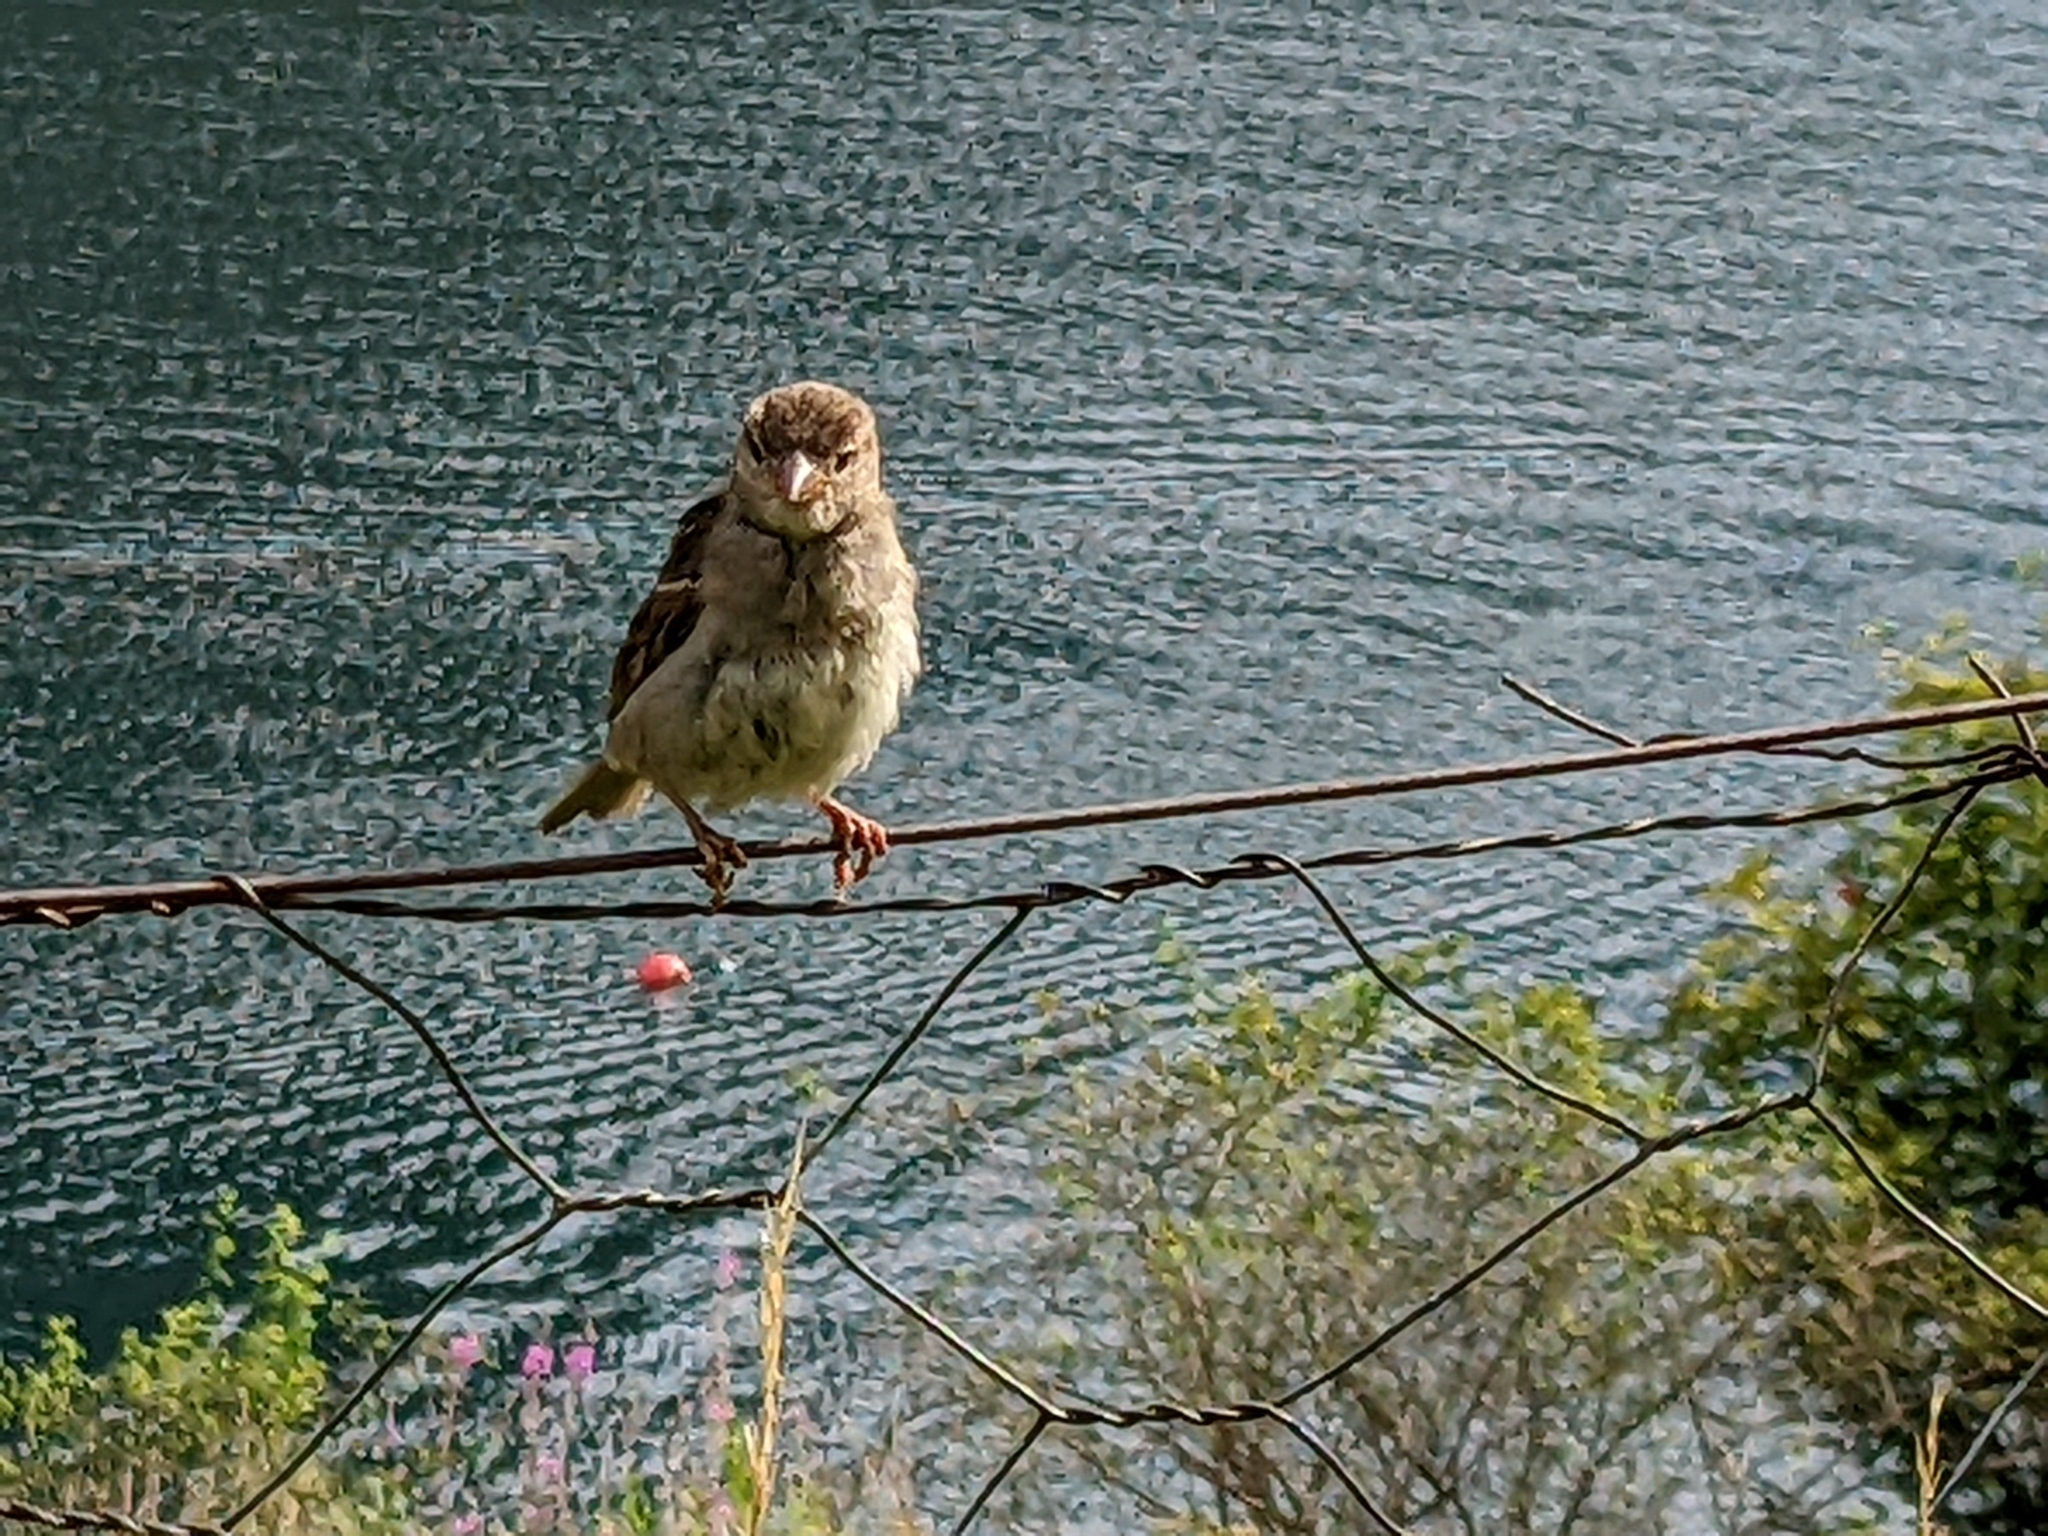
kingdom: Animalia
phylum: Chordata
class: Aves
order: Passeriformes
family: Passeridae
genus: Passer
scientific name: Passer domesticus
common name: House sparrow
